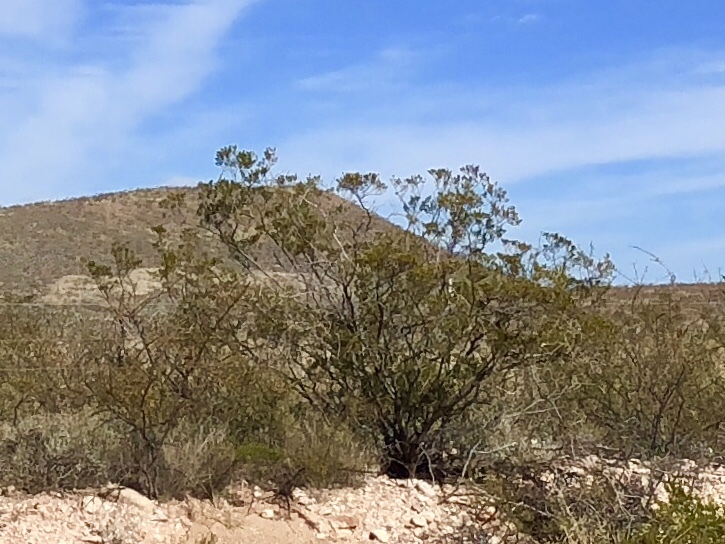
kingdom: Plantae
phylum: Tracheophyta
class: Magnoliopsida
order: Zygophyllales
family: Zygophyllaceae
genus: Larrea
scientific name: Larrea tridentata
